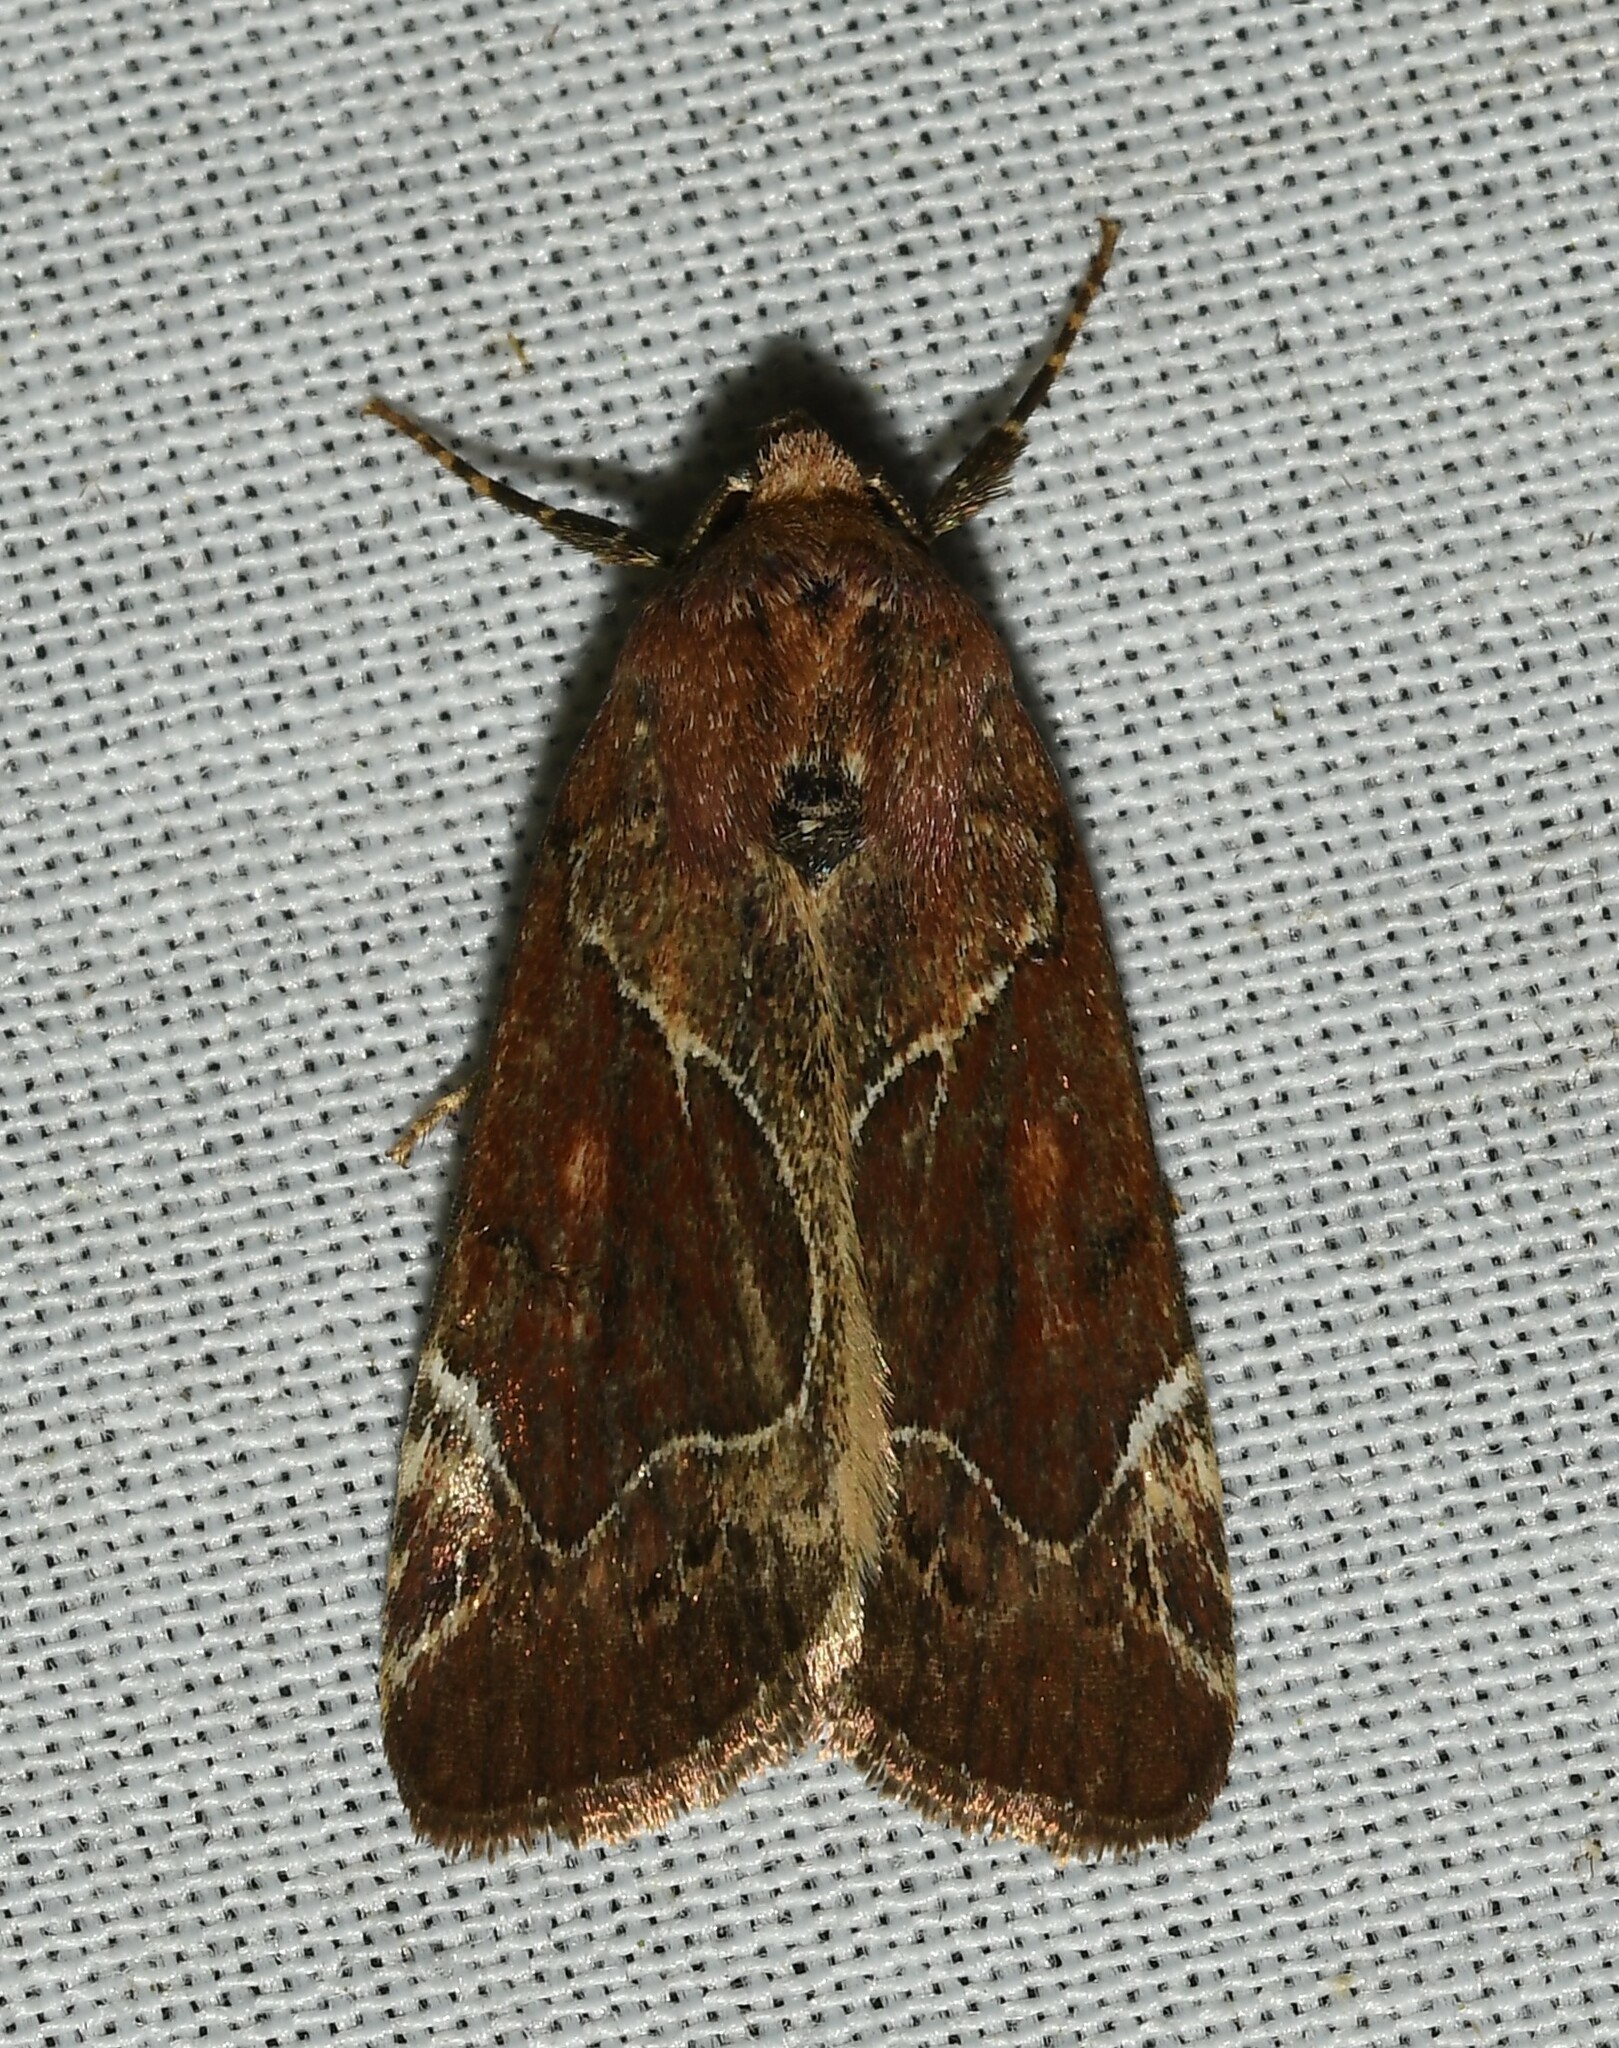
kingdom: Animalia
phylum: Arthropoda
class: Insecta
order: Lepidoptera
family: Noctuidae
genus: Hampsonodes
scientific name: Hampsonodes mastoides
